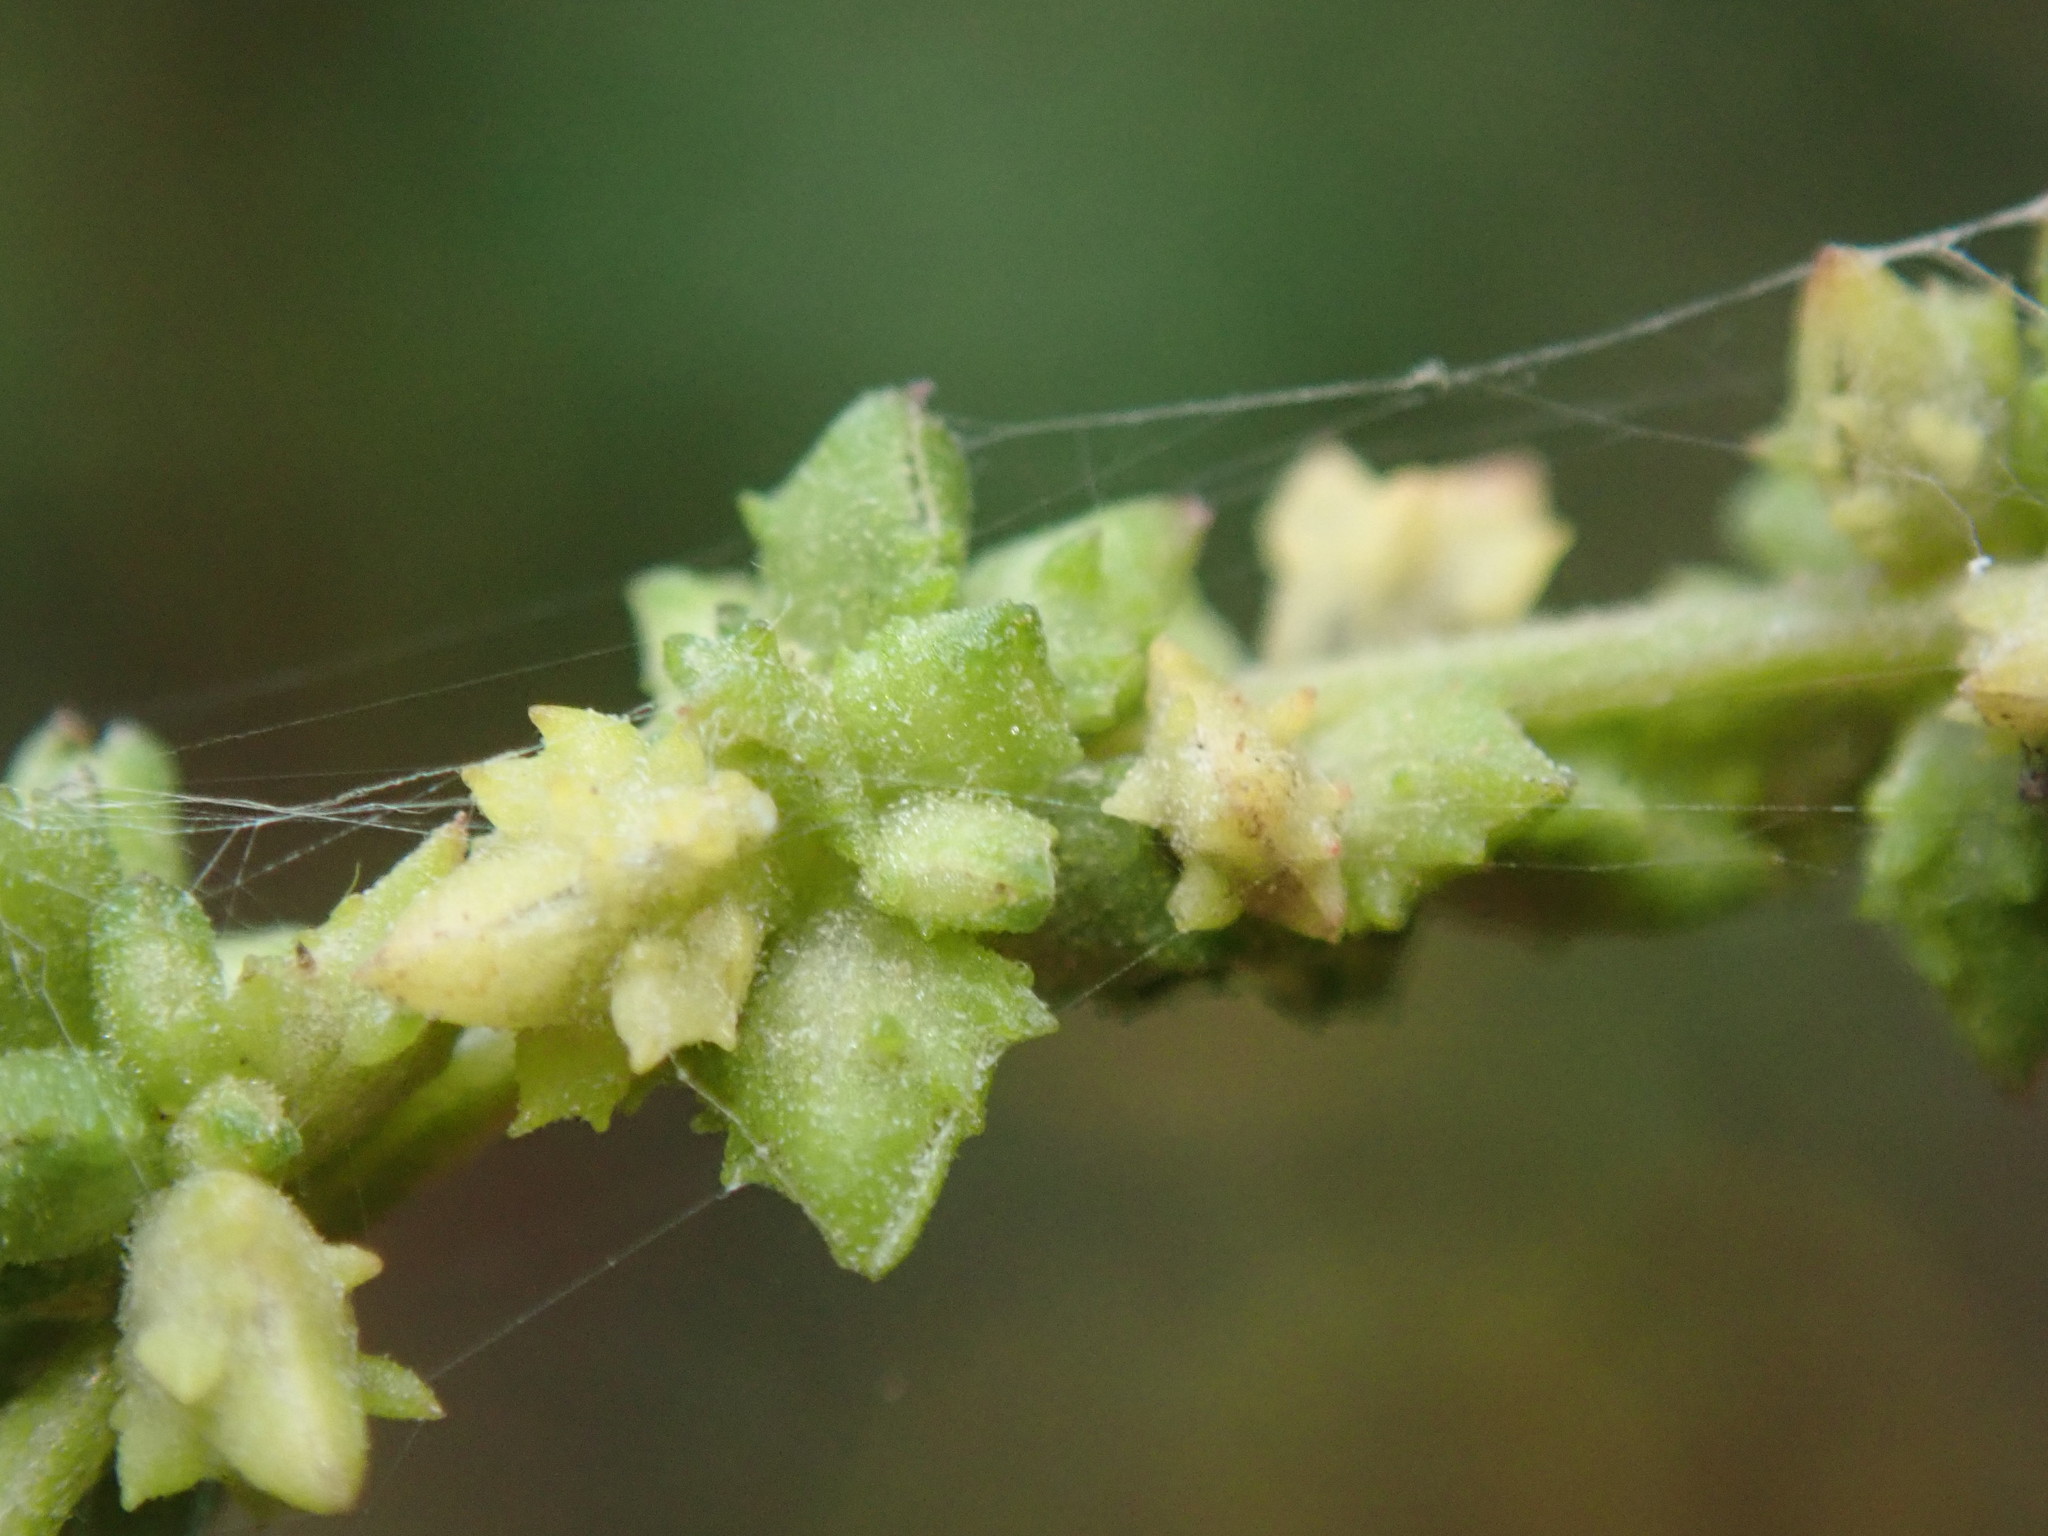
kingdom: Plantae
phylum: Tracheophyta
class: Magnoliopsida
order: Caryophyllales
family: Amaranthaceae
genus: Atriplex
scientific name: Atriplex patula
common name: Common orache
